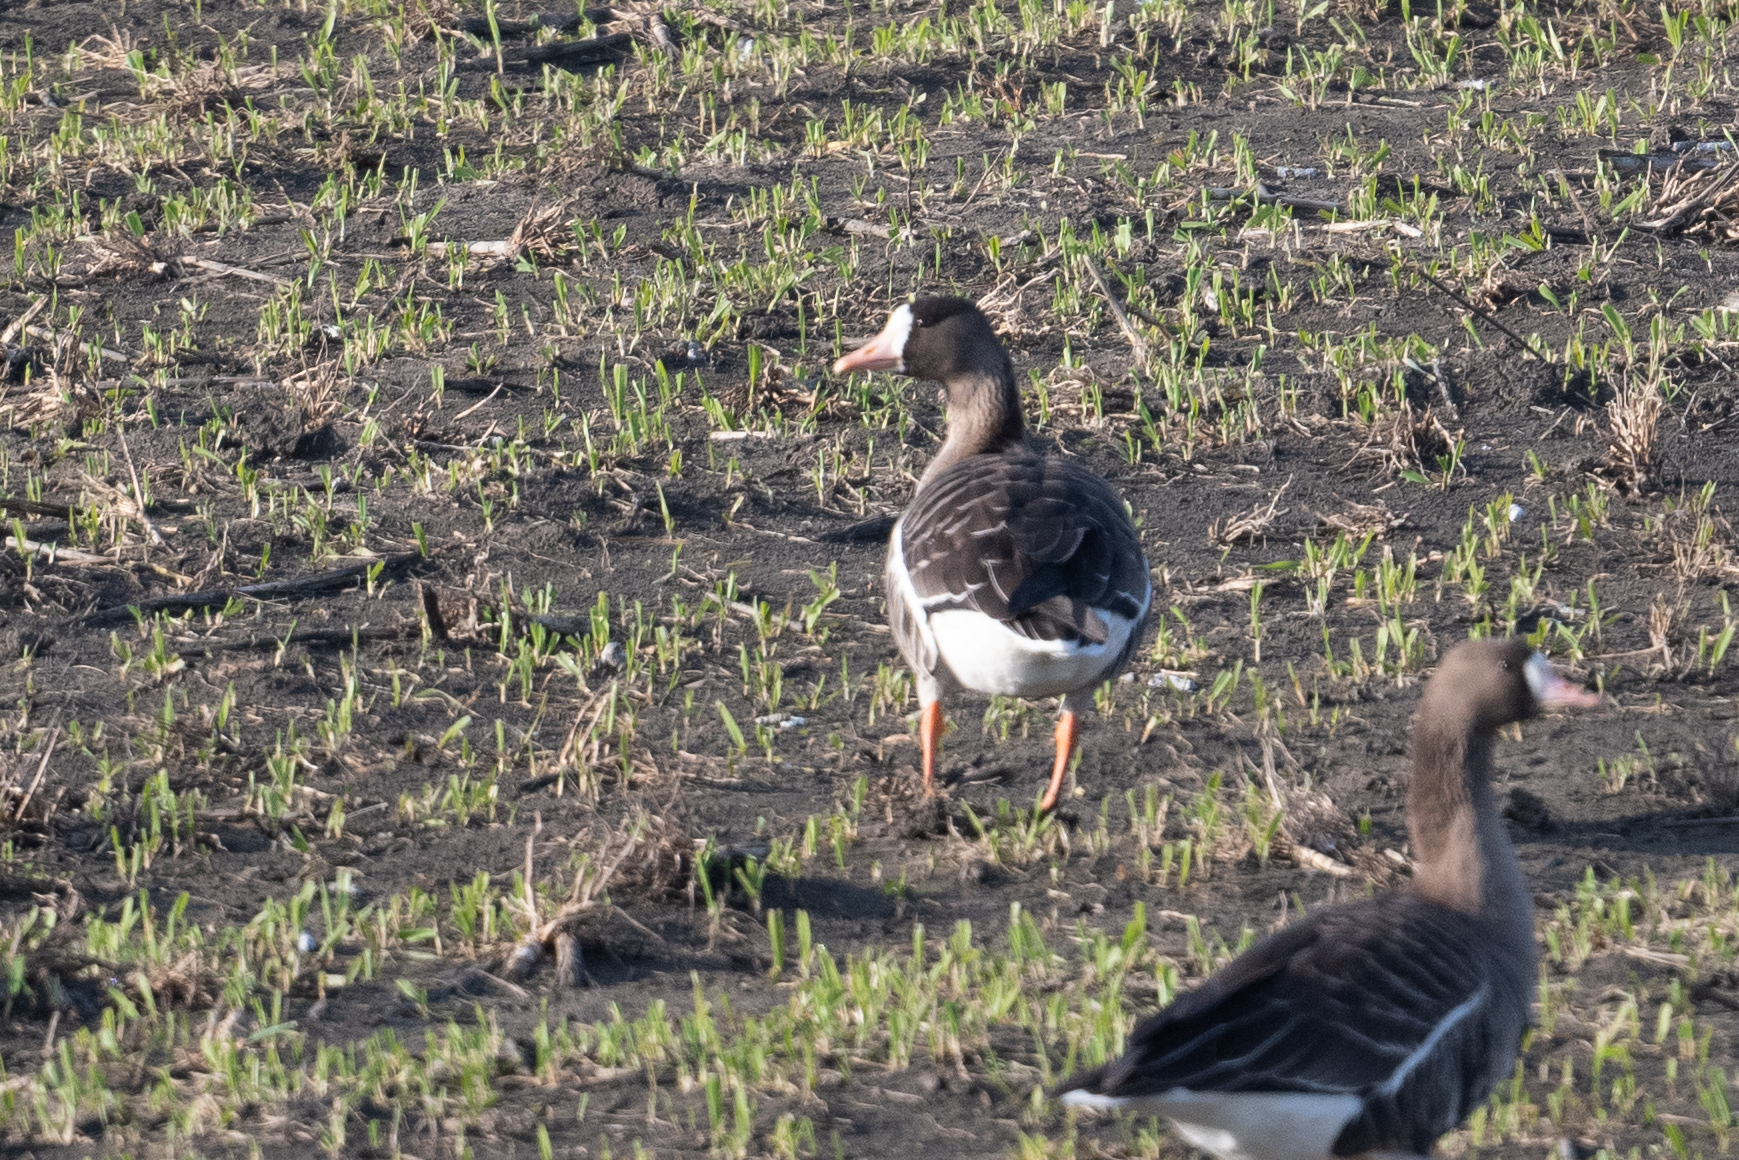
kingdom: Animalia
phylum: Chordata
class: Aves
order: Anseriformes
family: Anatidae
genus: Anser
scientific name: Anser albifrons
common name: Greater white-fronted goose
